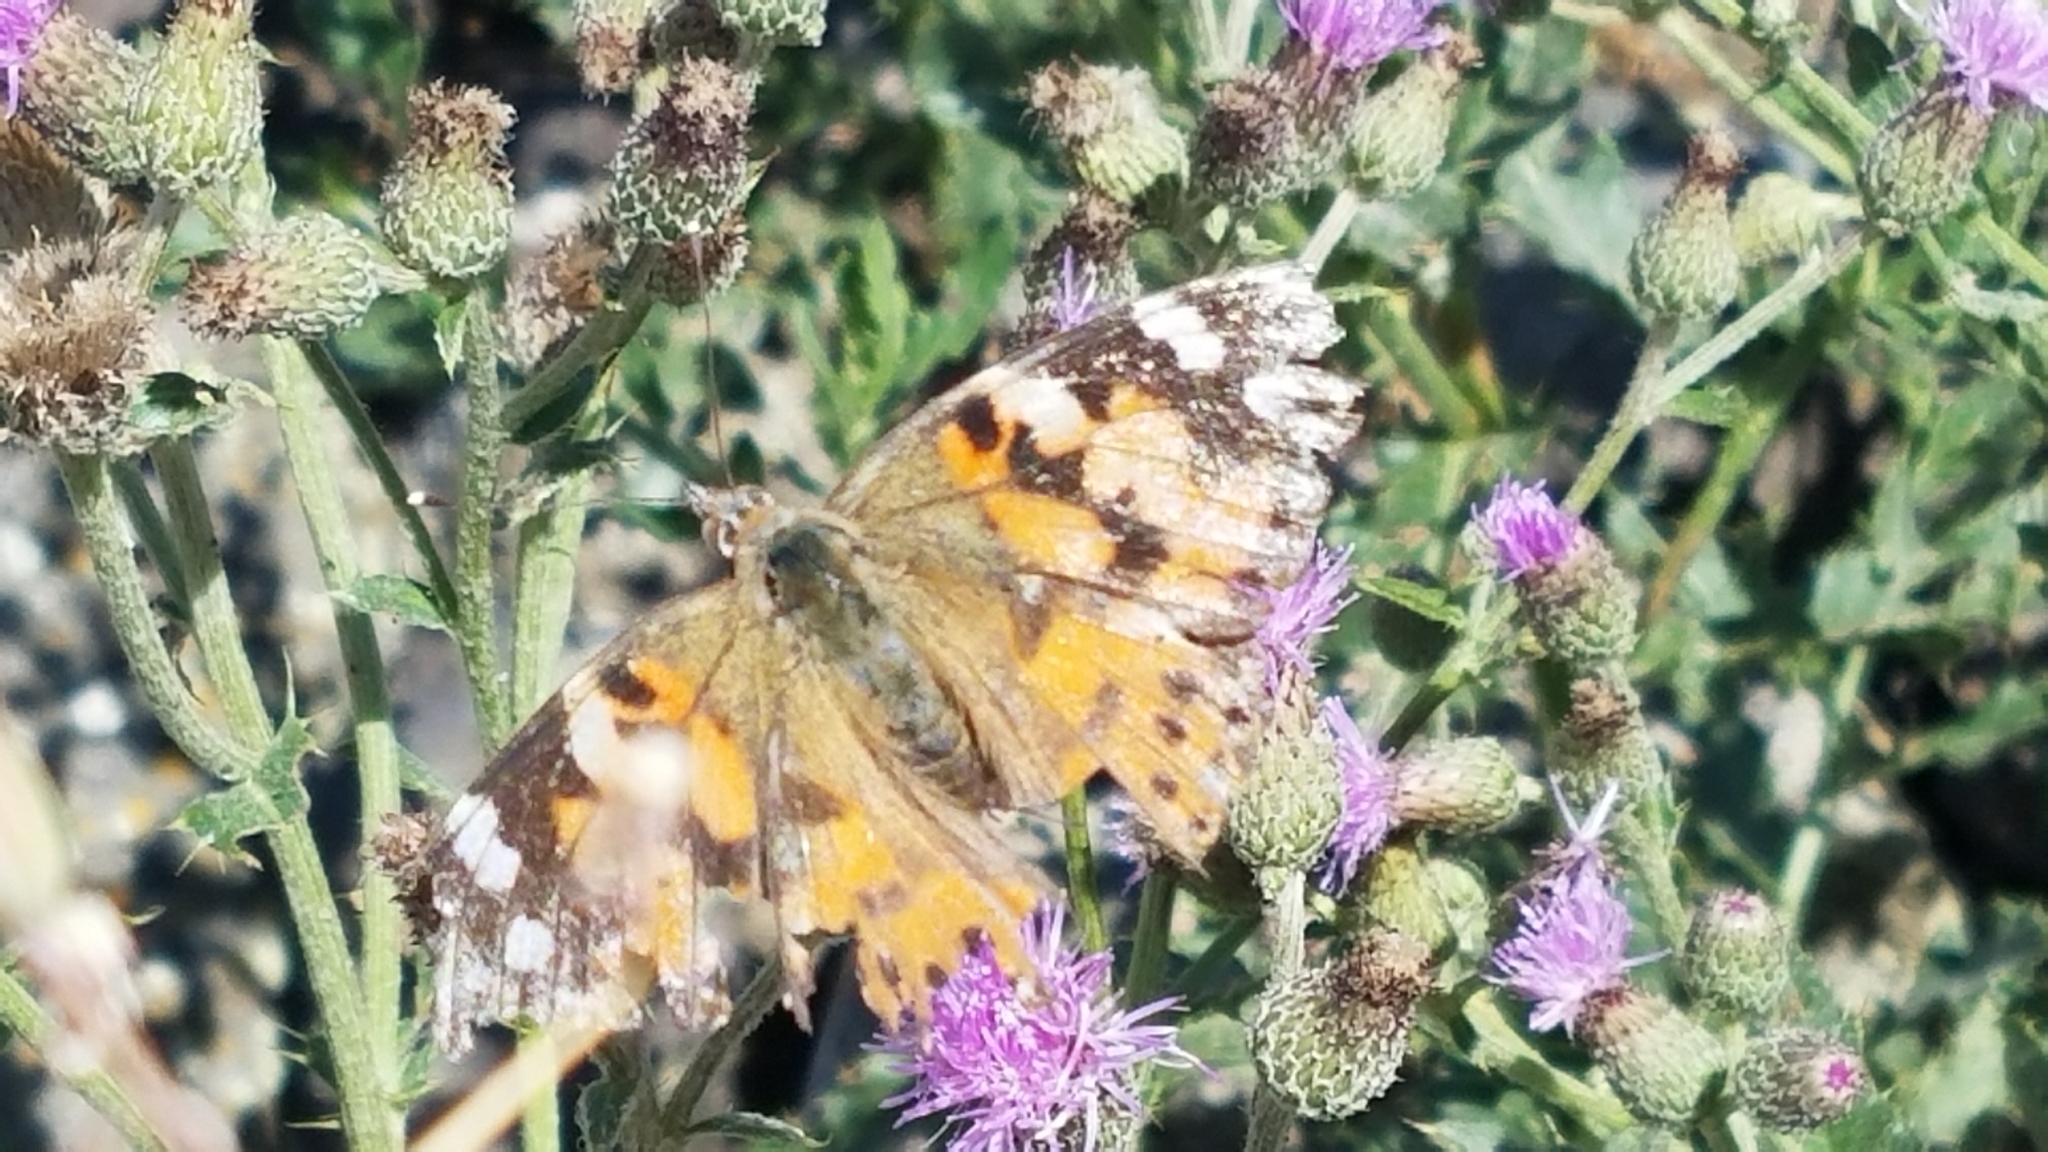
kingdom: Animalia
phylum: Arthropoda
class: Insecta
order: Lepidoptera
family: Nymphalidae
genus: Vanessa
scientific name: Vanessa cardui
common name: Painted lady
